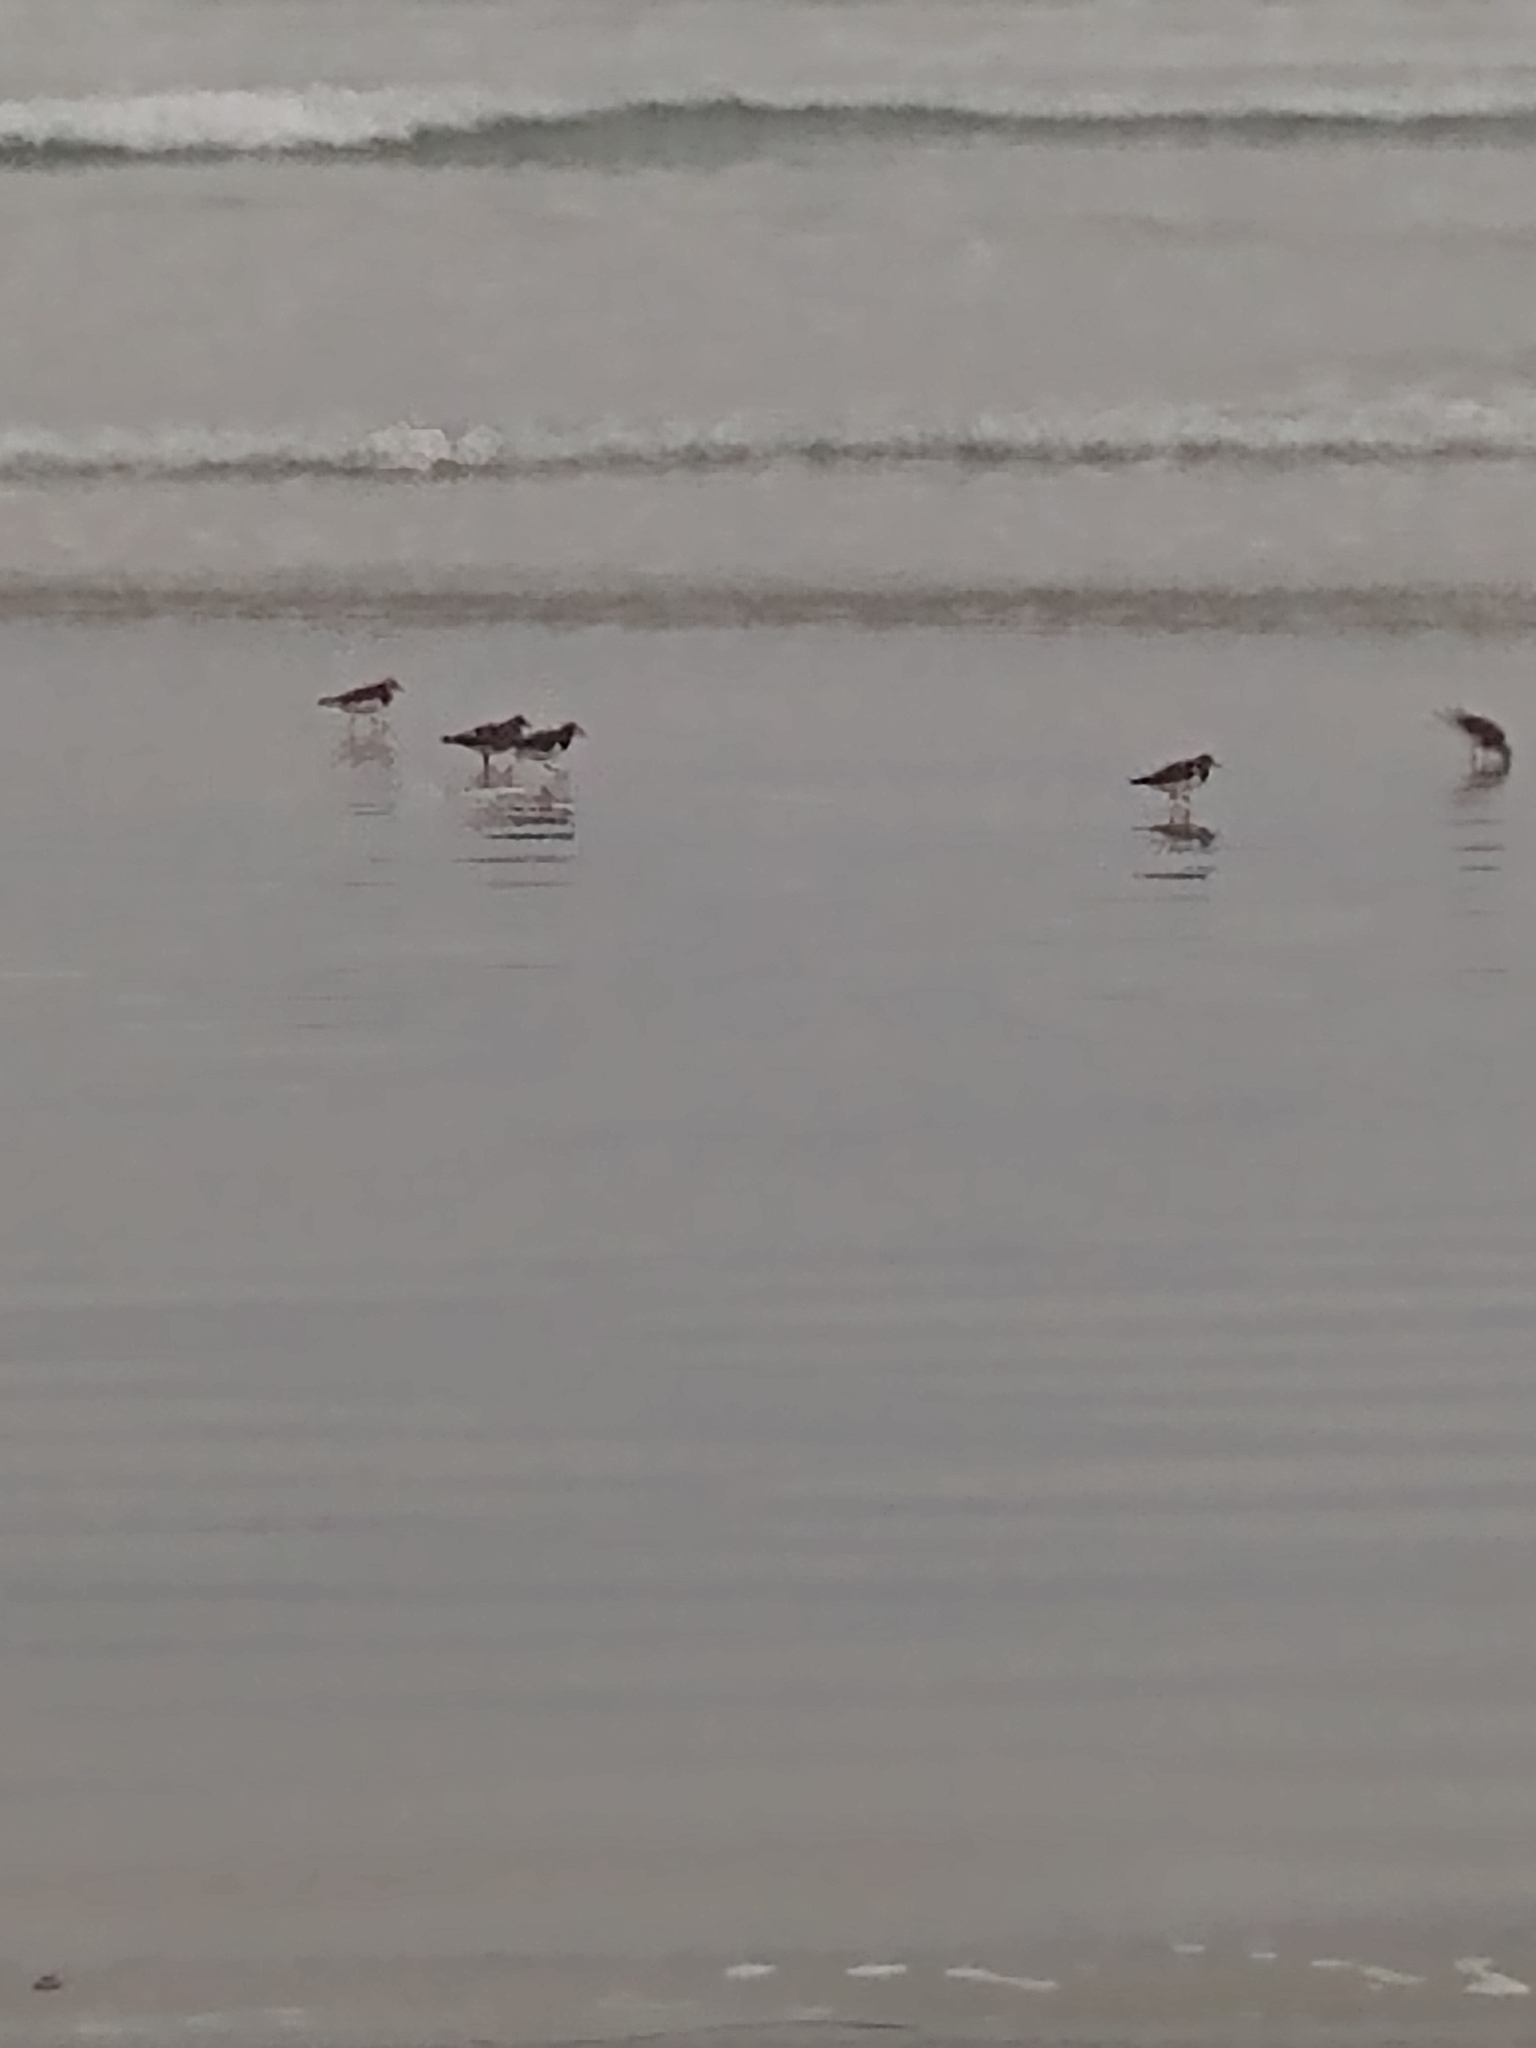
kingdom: Animalia
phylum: Chordata
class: Aves
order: Charadriiformes
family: Scolopacidae
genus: Arenaria
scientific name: Arenaria interpres
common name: Ruddy turnstone
